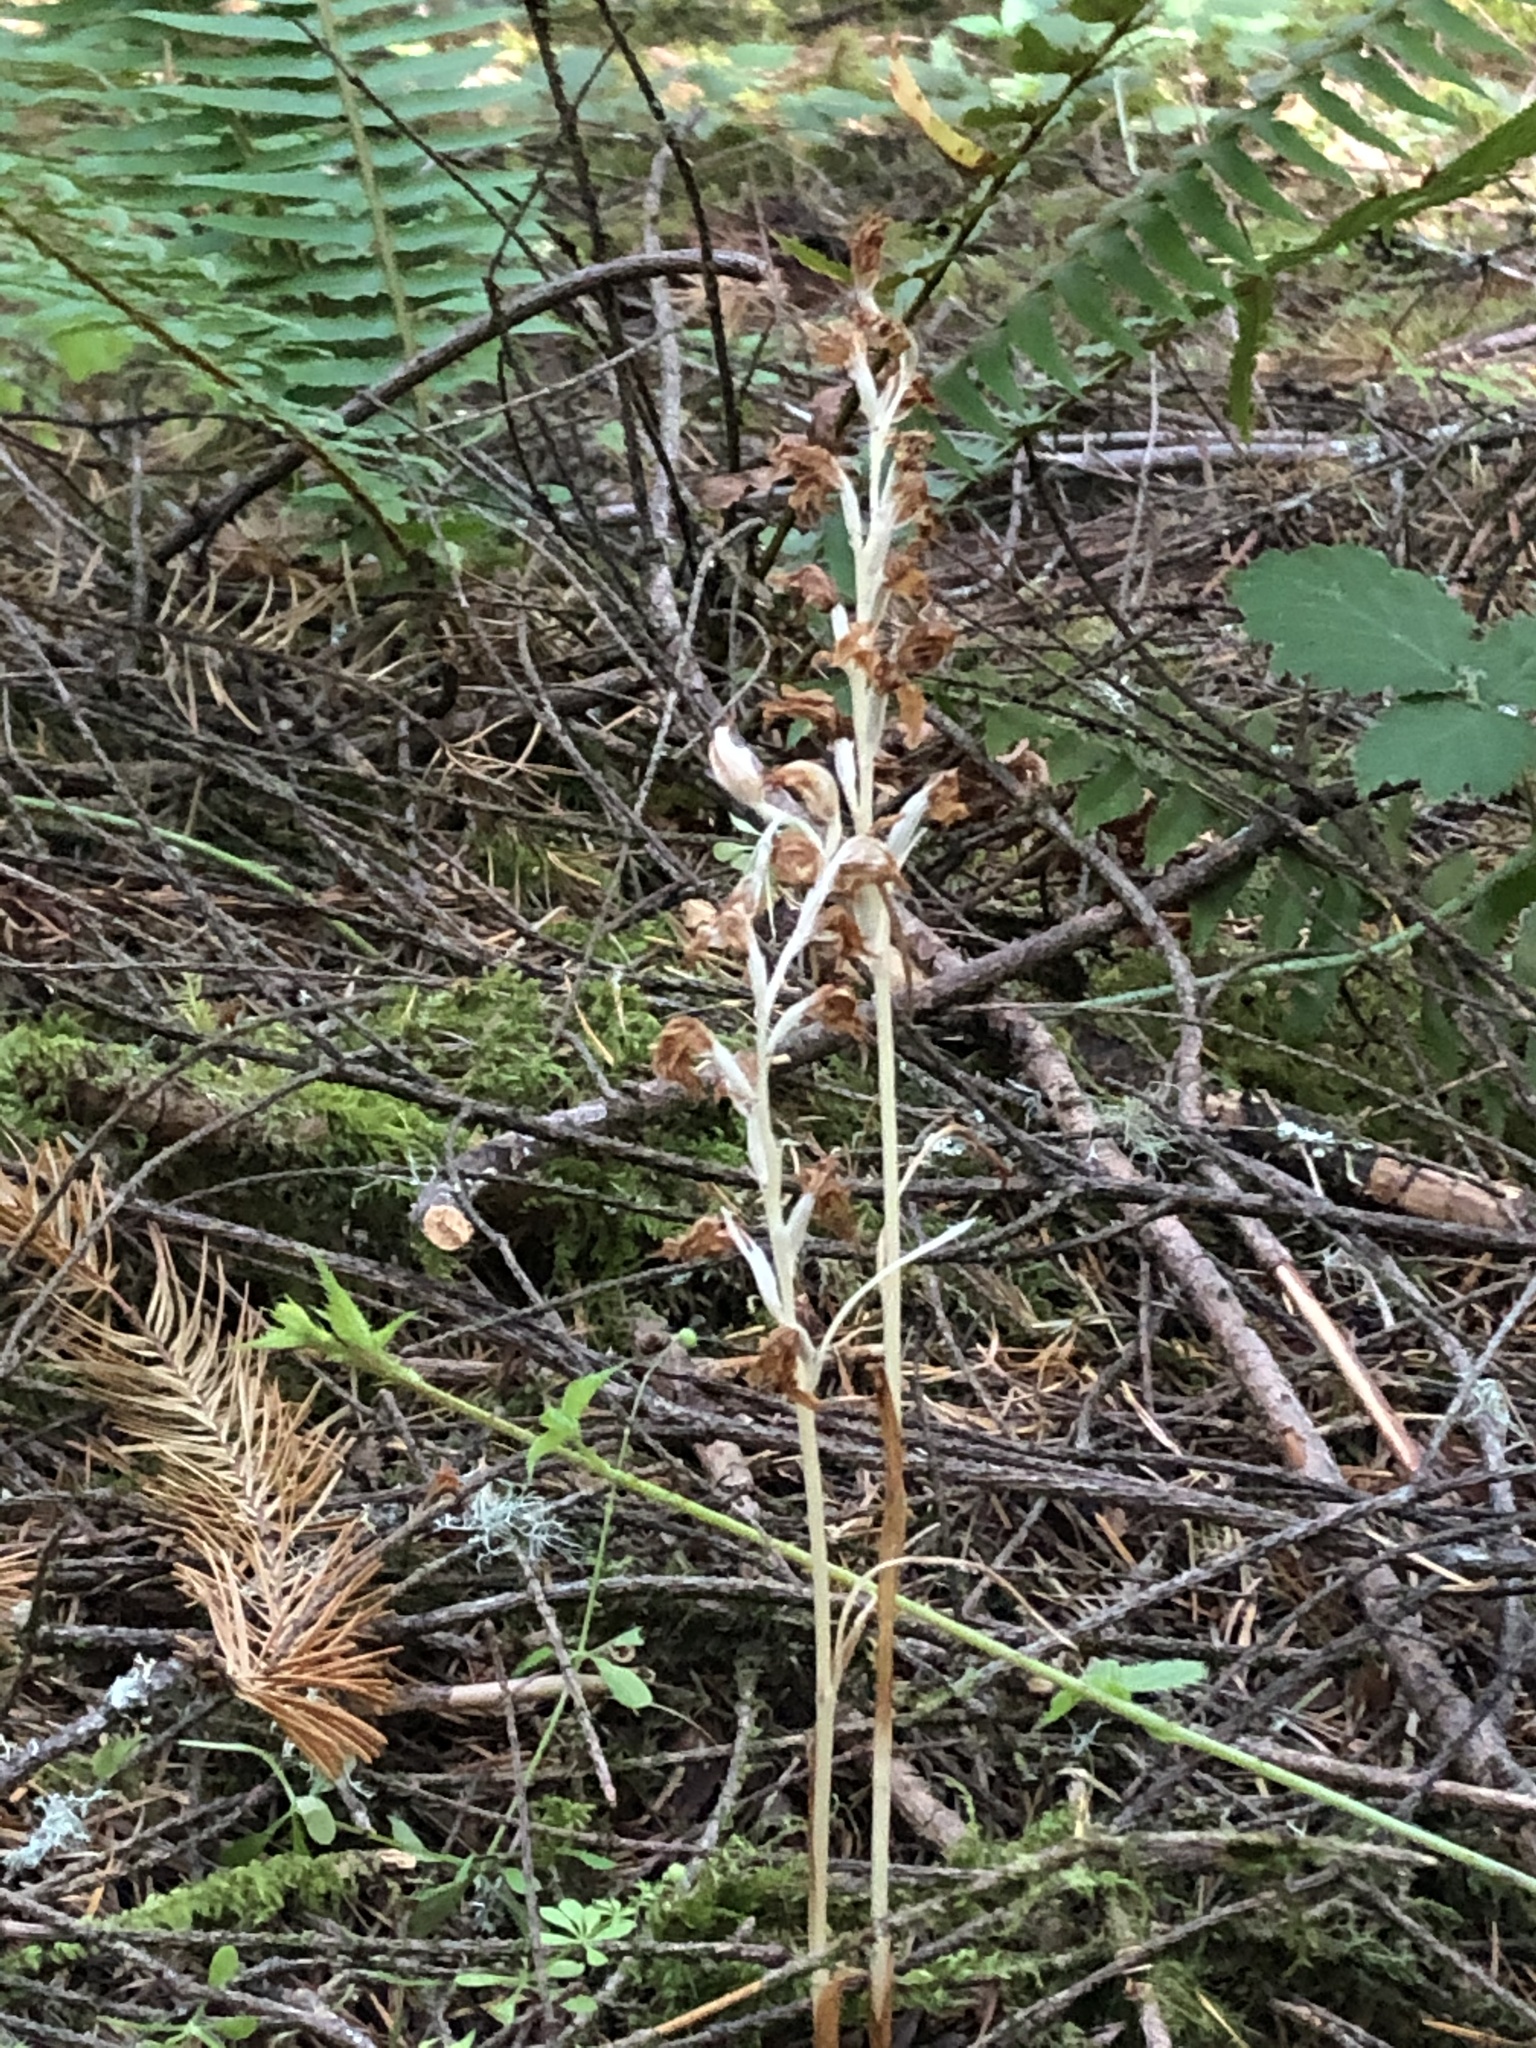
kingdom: Plantae
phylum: Tracheophyta
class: Liliopsida
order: Asparagales
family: Orchidaceae
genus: Cephalanthera
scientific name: Cephalanthera austiniae
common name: Phantom orchid
